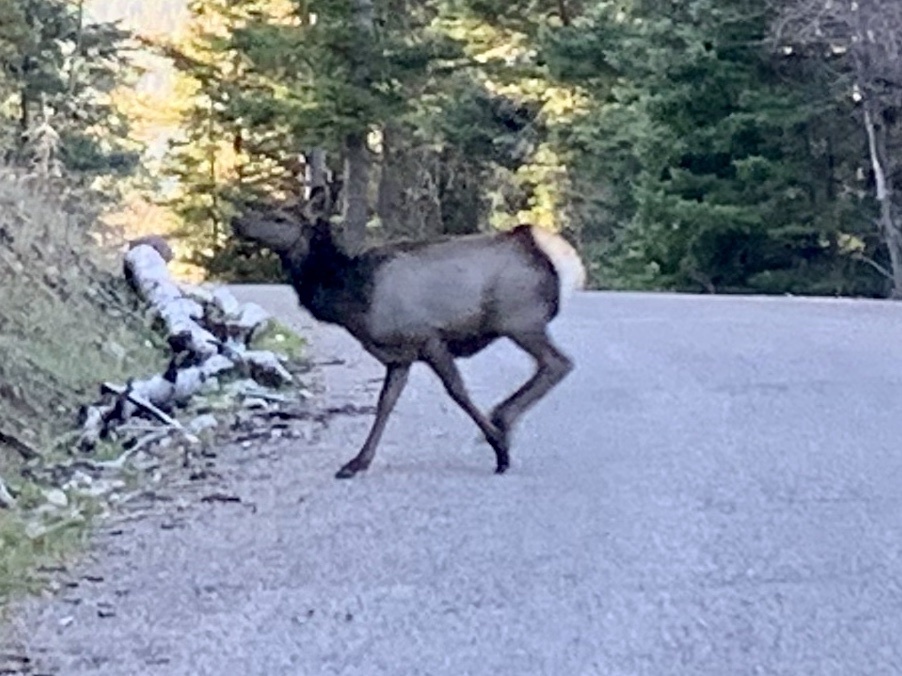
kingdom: Animalia
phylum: Chordata
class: Mammalia
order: Artiodactyla
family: Cervidae
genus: Cervus
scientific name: Cervus elaphus
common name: Red deer
